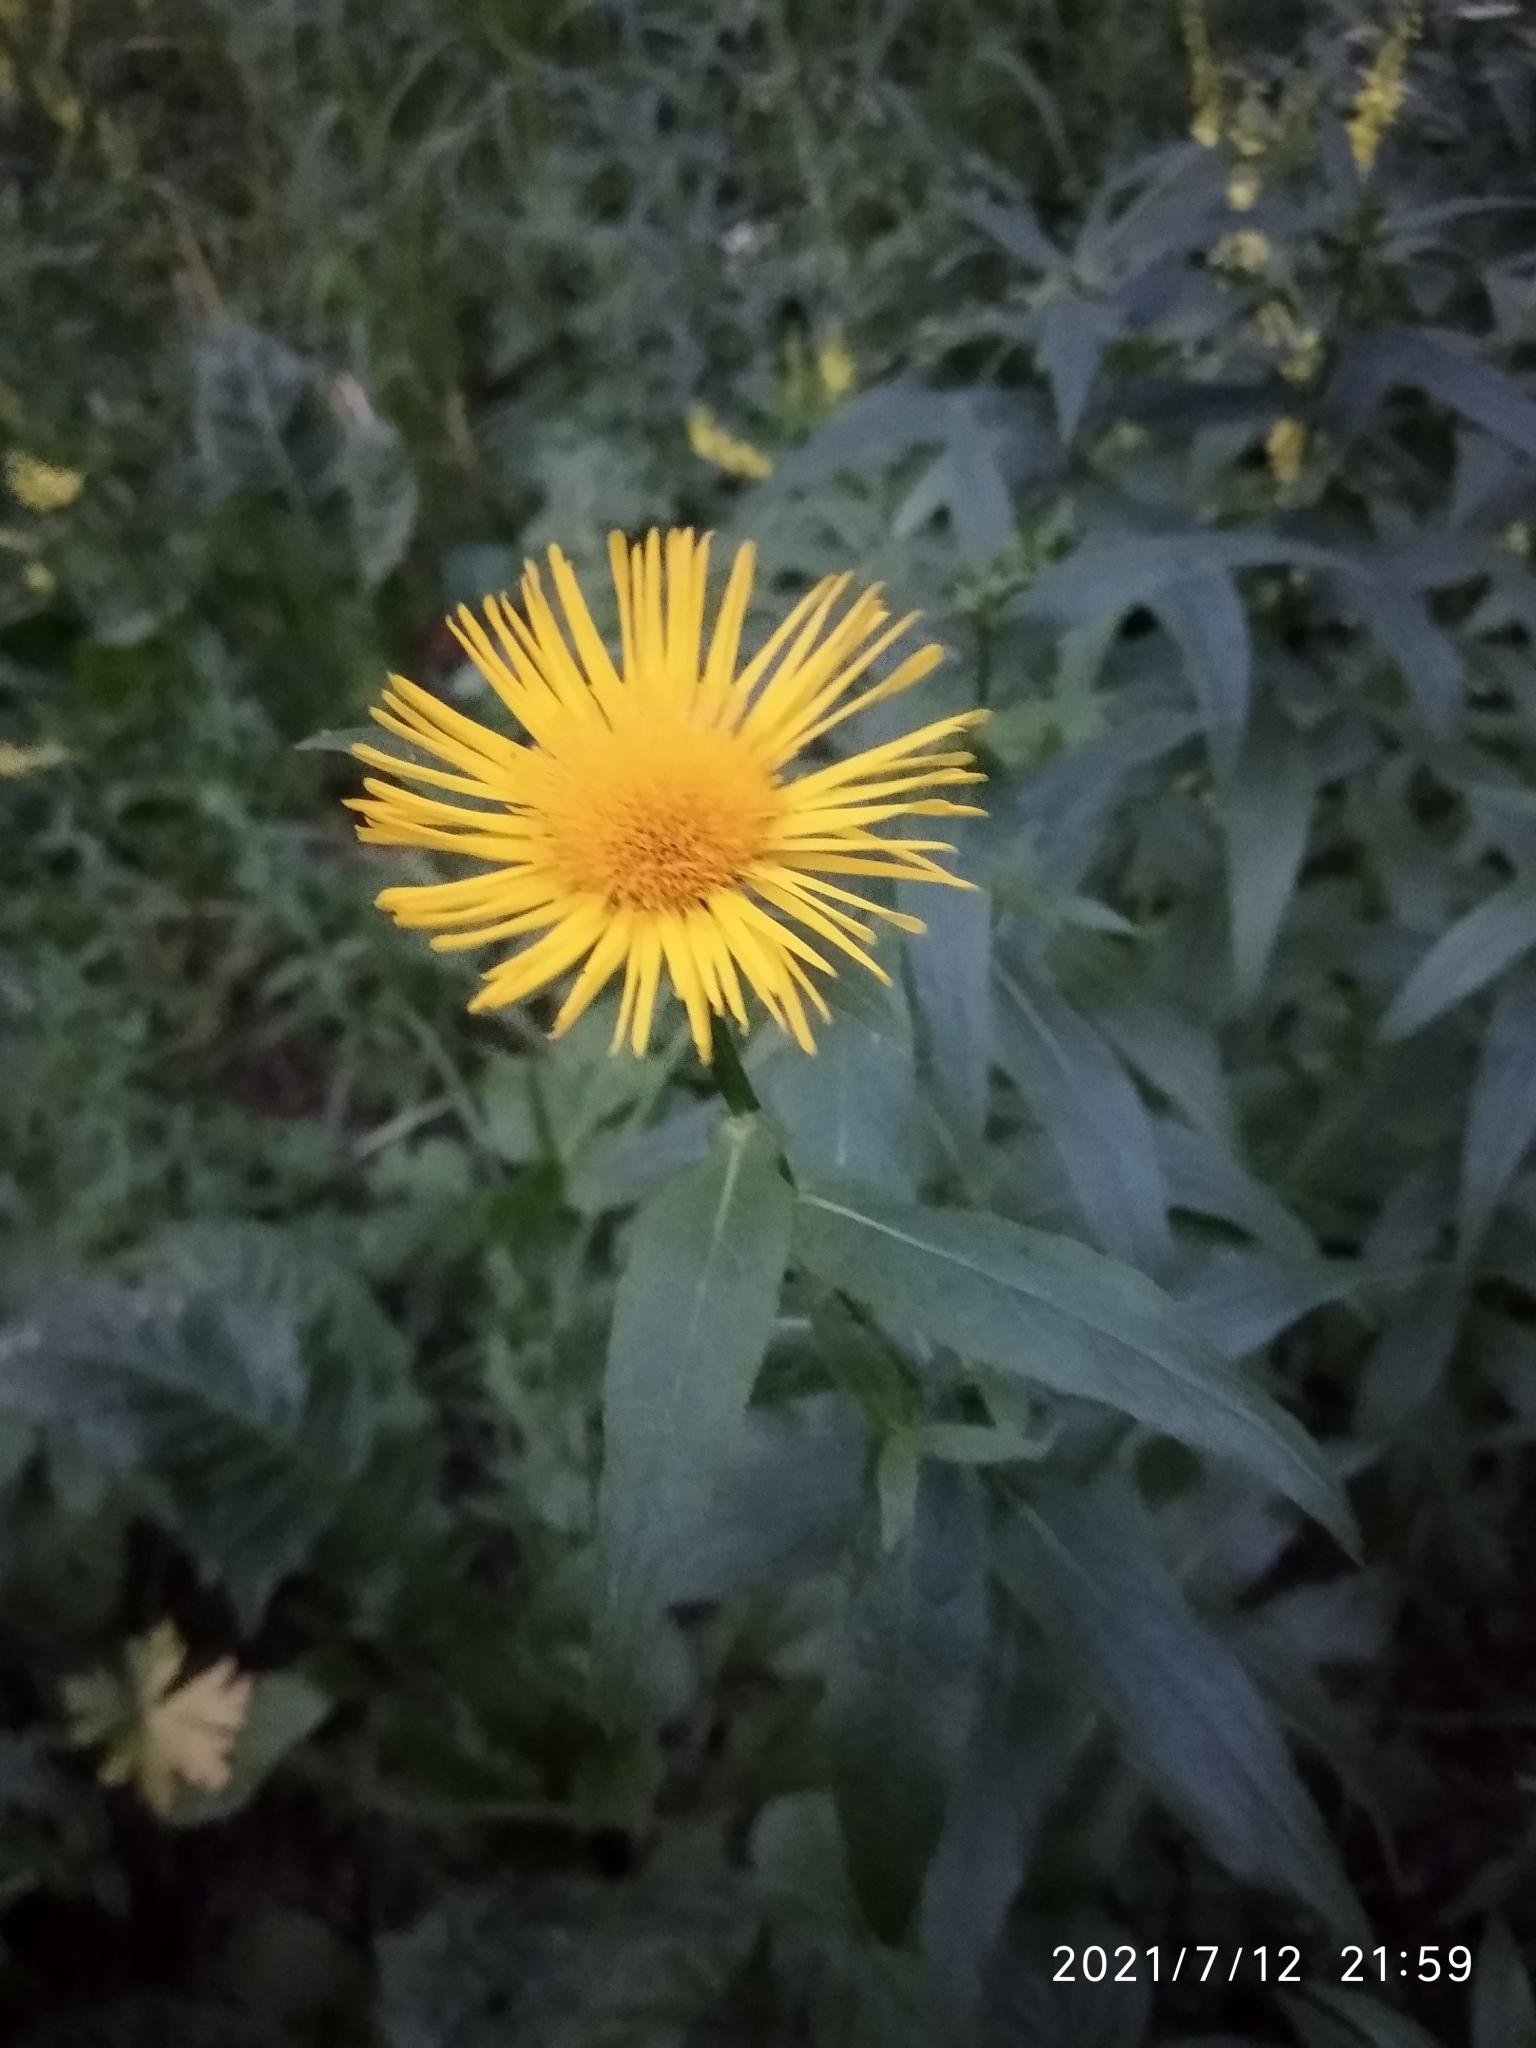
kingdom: Plantae
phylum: Tracheophyta
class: Magnoliopsida
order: Asterales
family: Asteraceae
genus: Pentanema
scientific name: Pentanema salicinum
